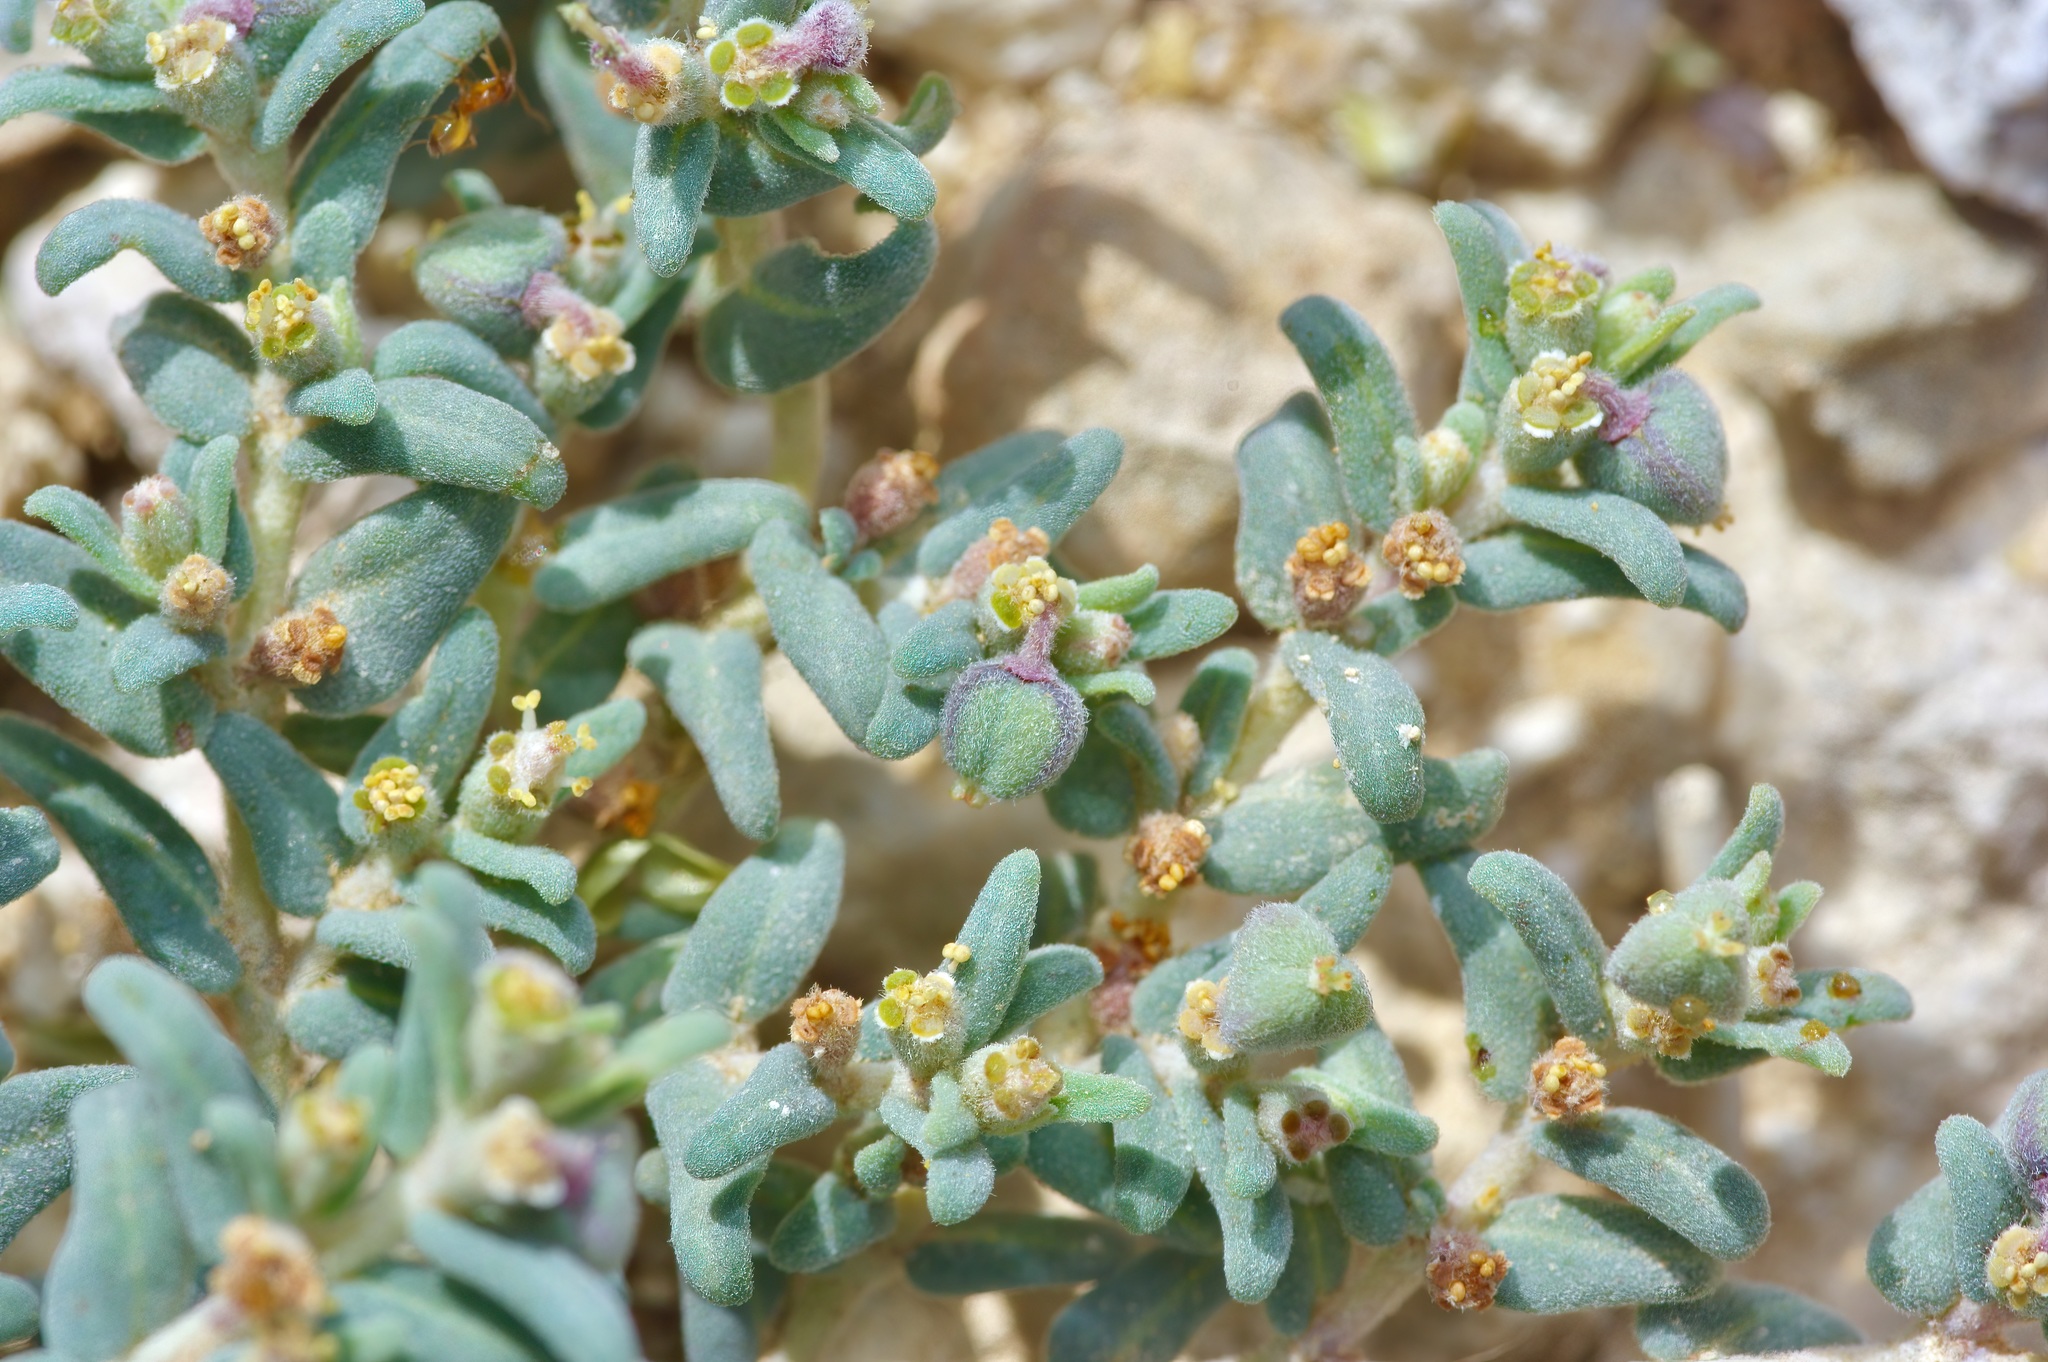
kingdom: Plantae
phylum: Tracheophyta
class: Magnoliopsida
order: Malpighiales
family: Euphorbiaceae
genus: Euphorbia
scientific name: Euphorbia lata
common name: Hoary euphorbia
